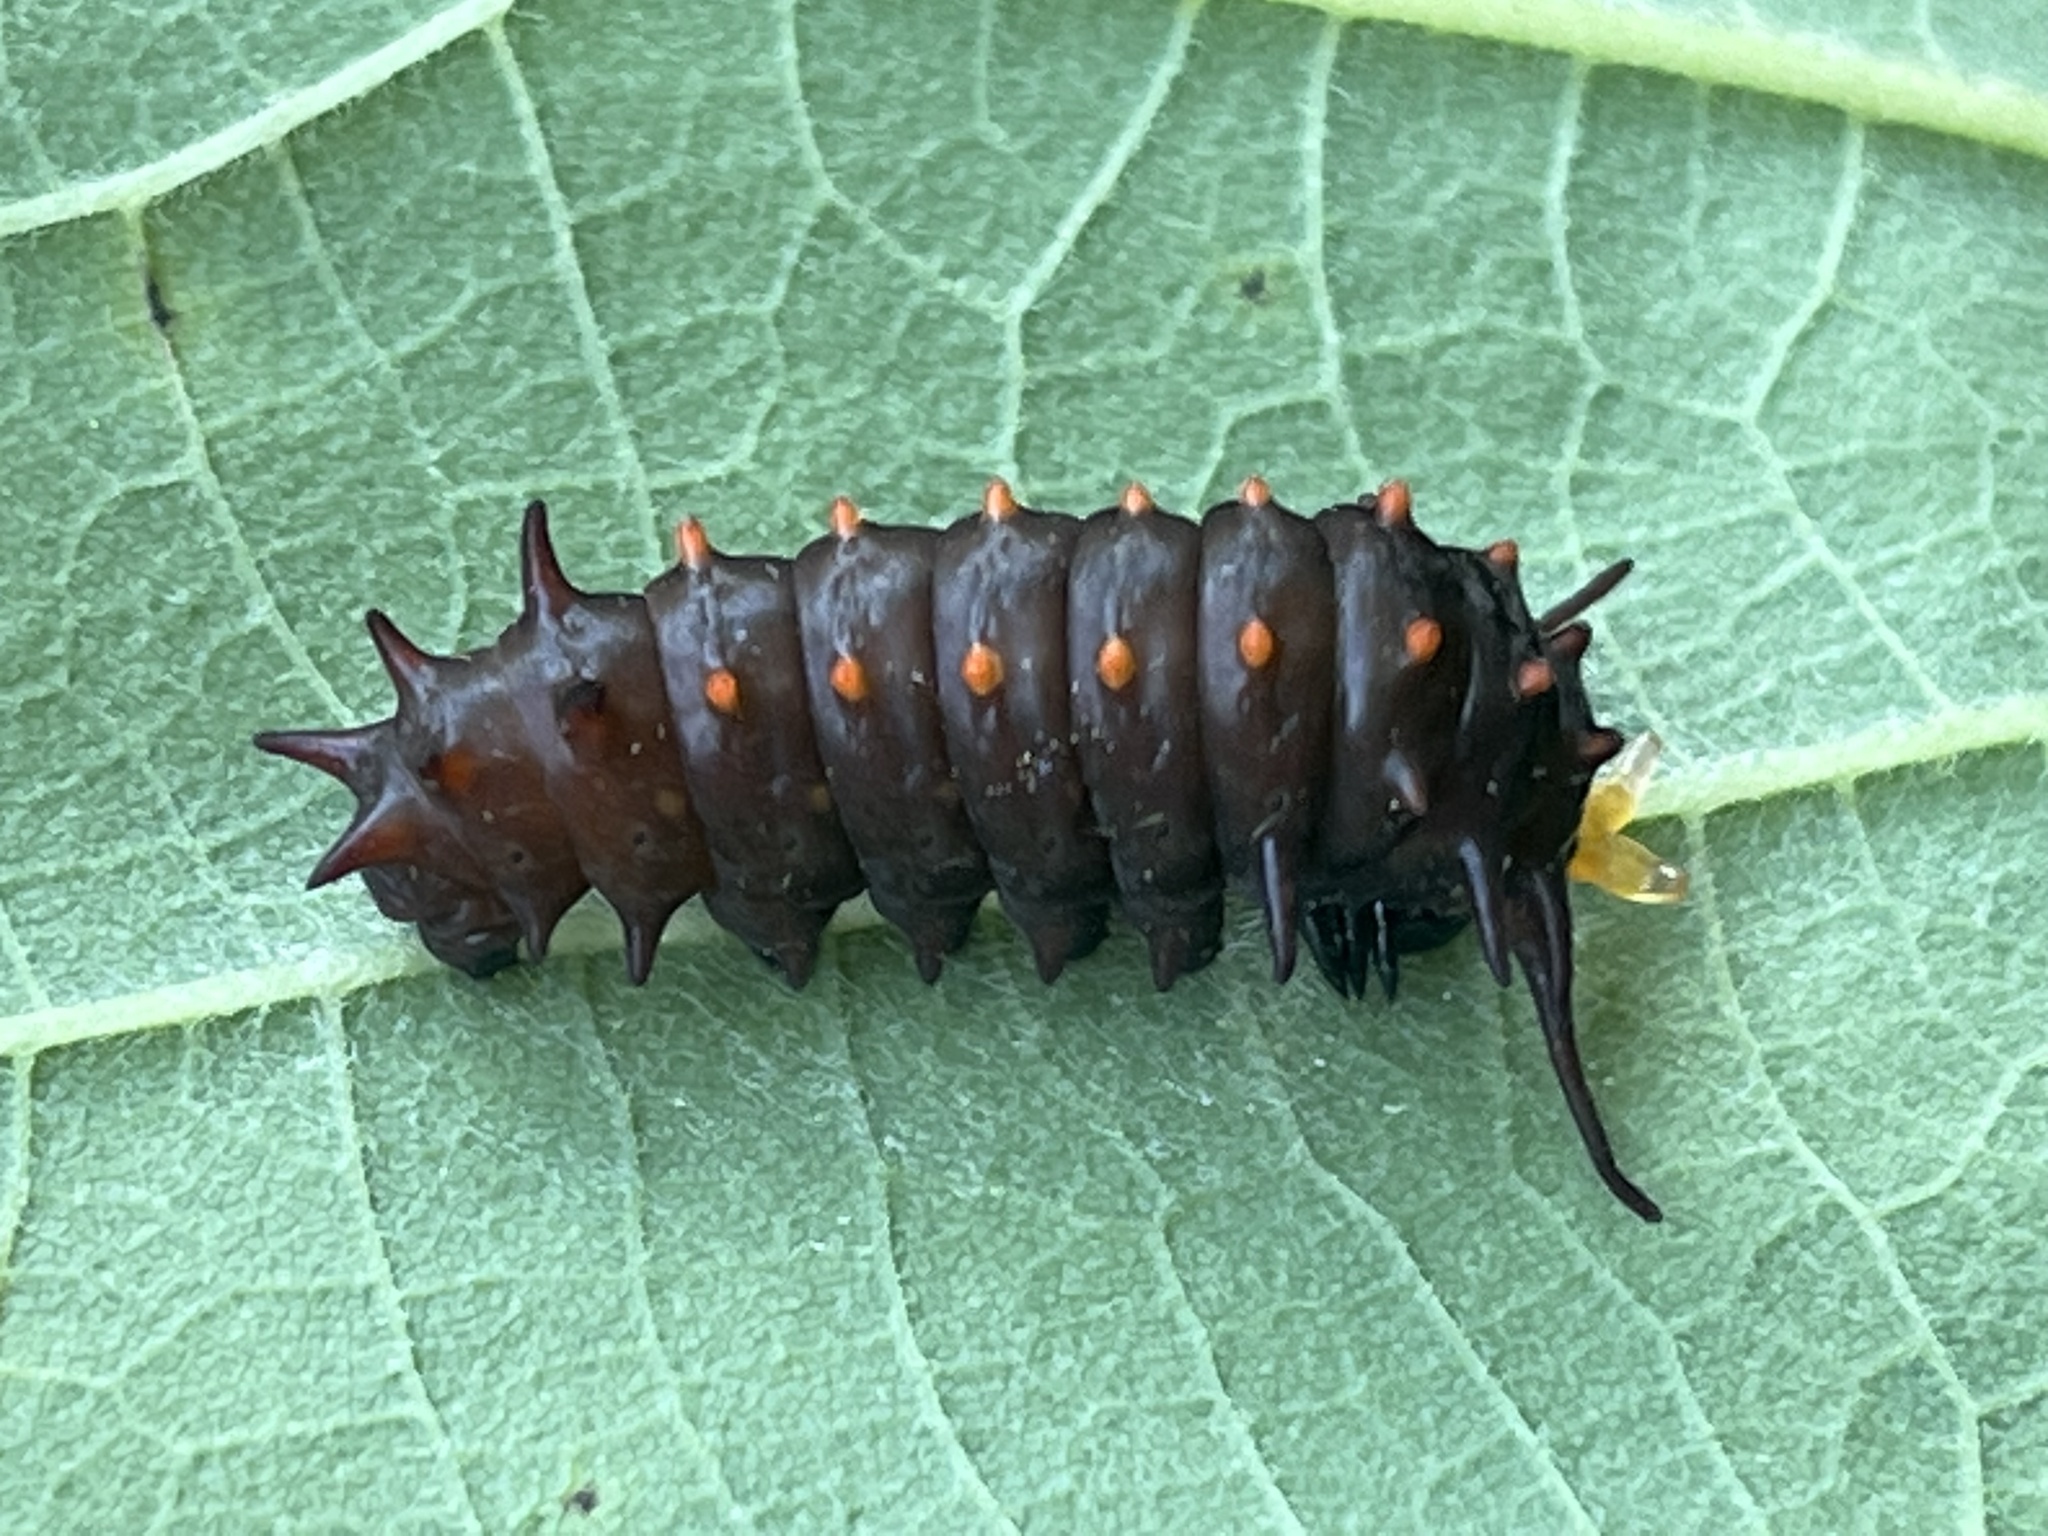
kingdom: Animalia
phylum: Arthropoda
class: Insecta
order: Lepidoptera
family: Papilionidae
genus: Battus
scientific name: Battus philenor
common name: Pipevine swallowtail
